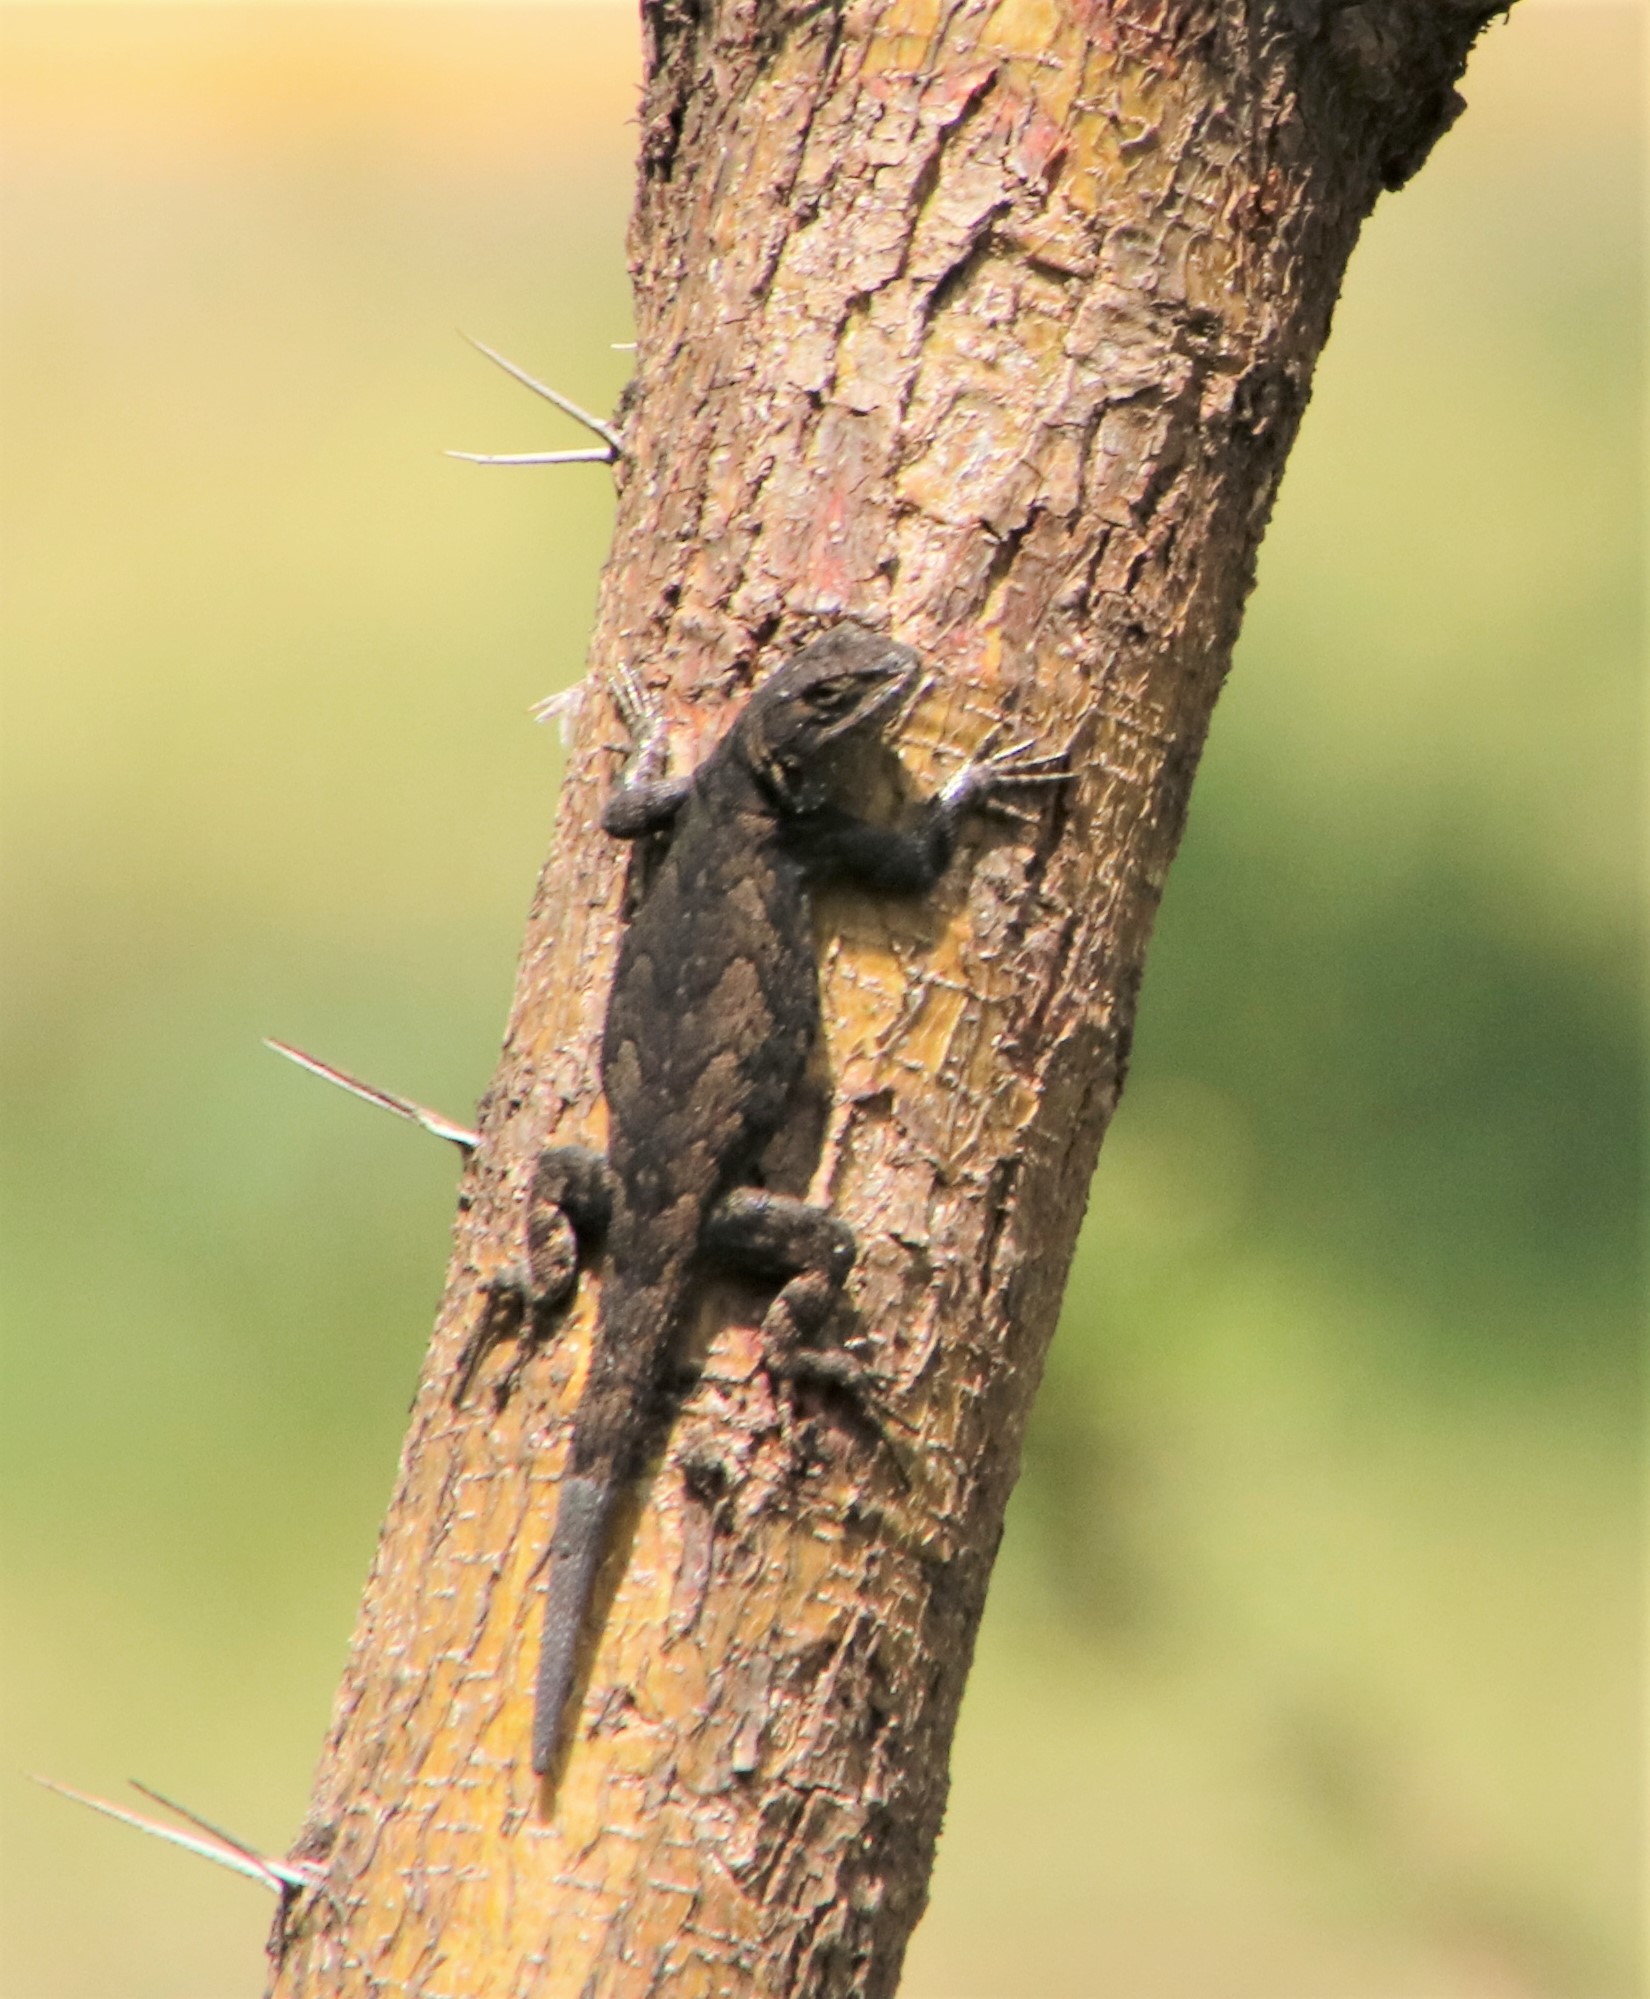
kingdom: Animalia
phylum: Chordata
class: Squamata
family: Phrynosomatidae
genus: Sceloporus
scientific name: Sceloporus grammicus
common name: Mesquite lizard
